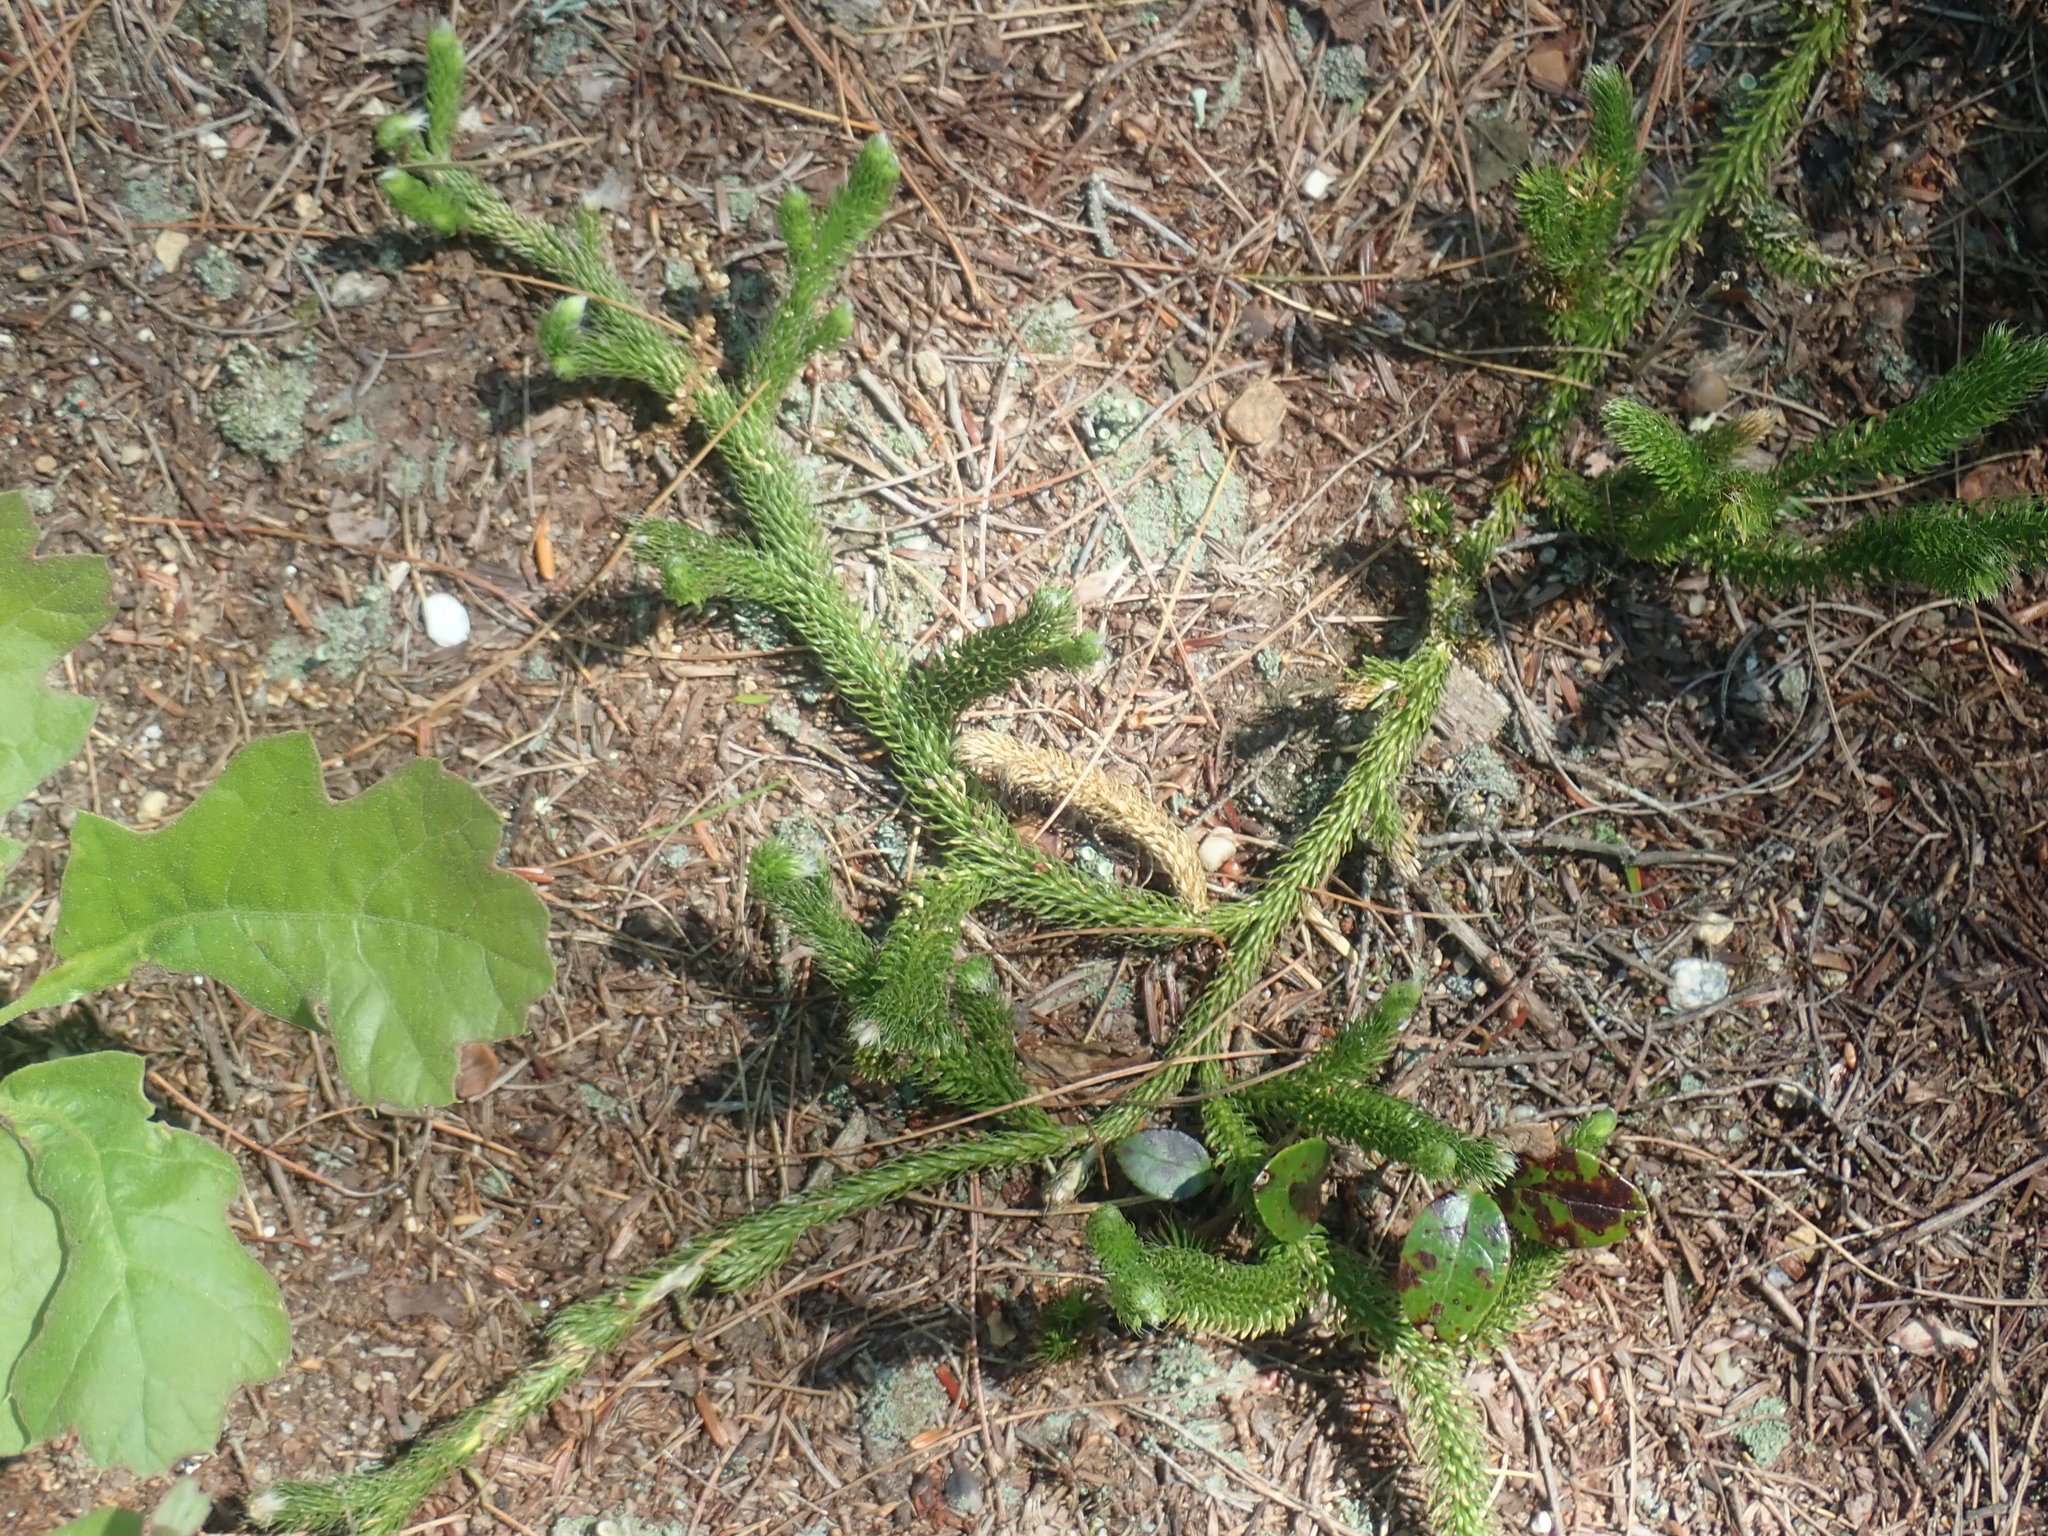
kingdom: Plantae
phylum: Tracheophyta
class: Lycopodiopsida
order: Lycopodiales
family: Lycopodiaceae
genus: Lycopodium
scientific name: Lycopodium clavatum
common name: Stag's-horn clubmoss
